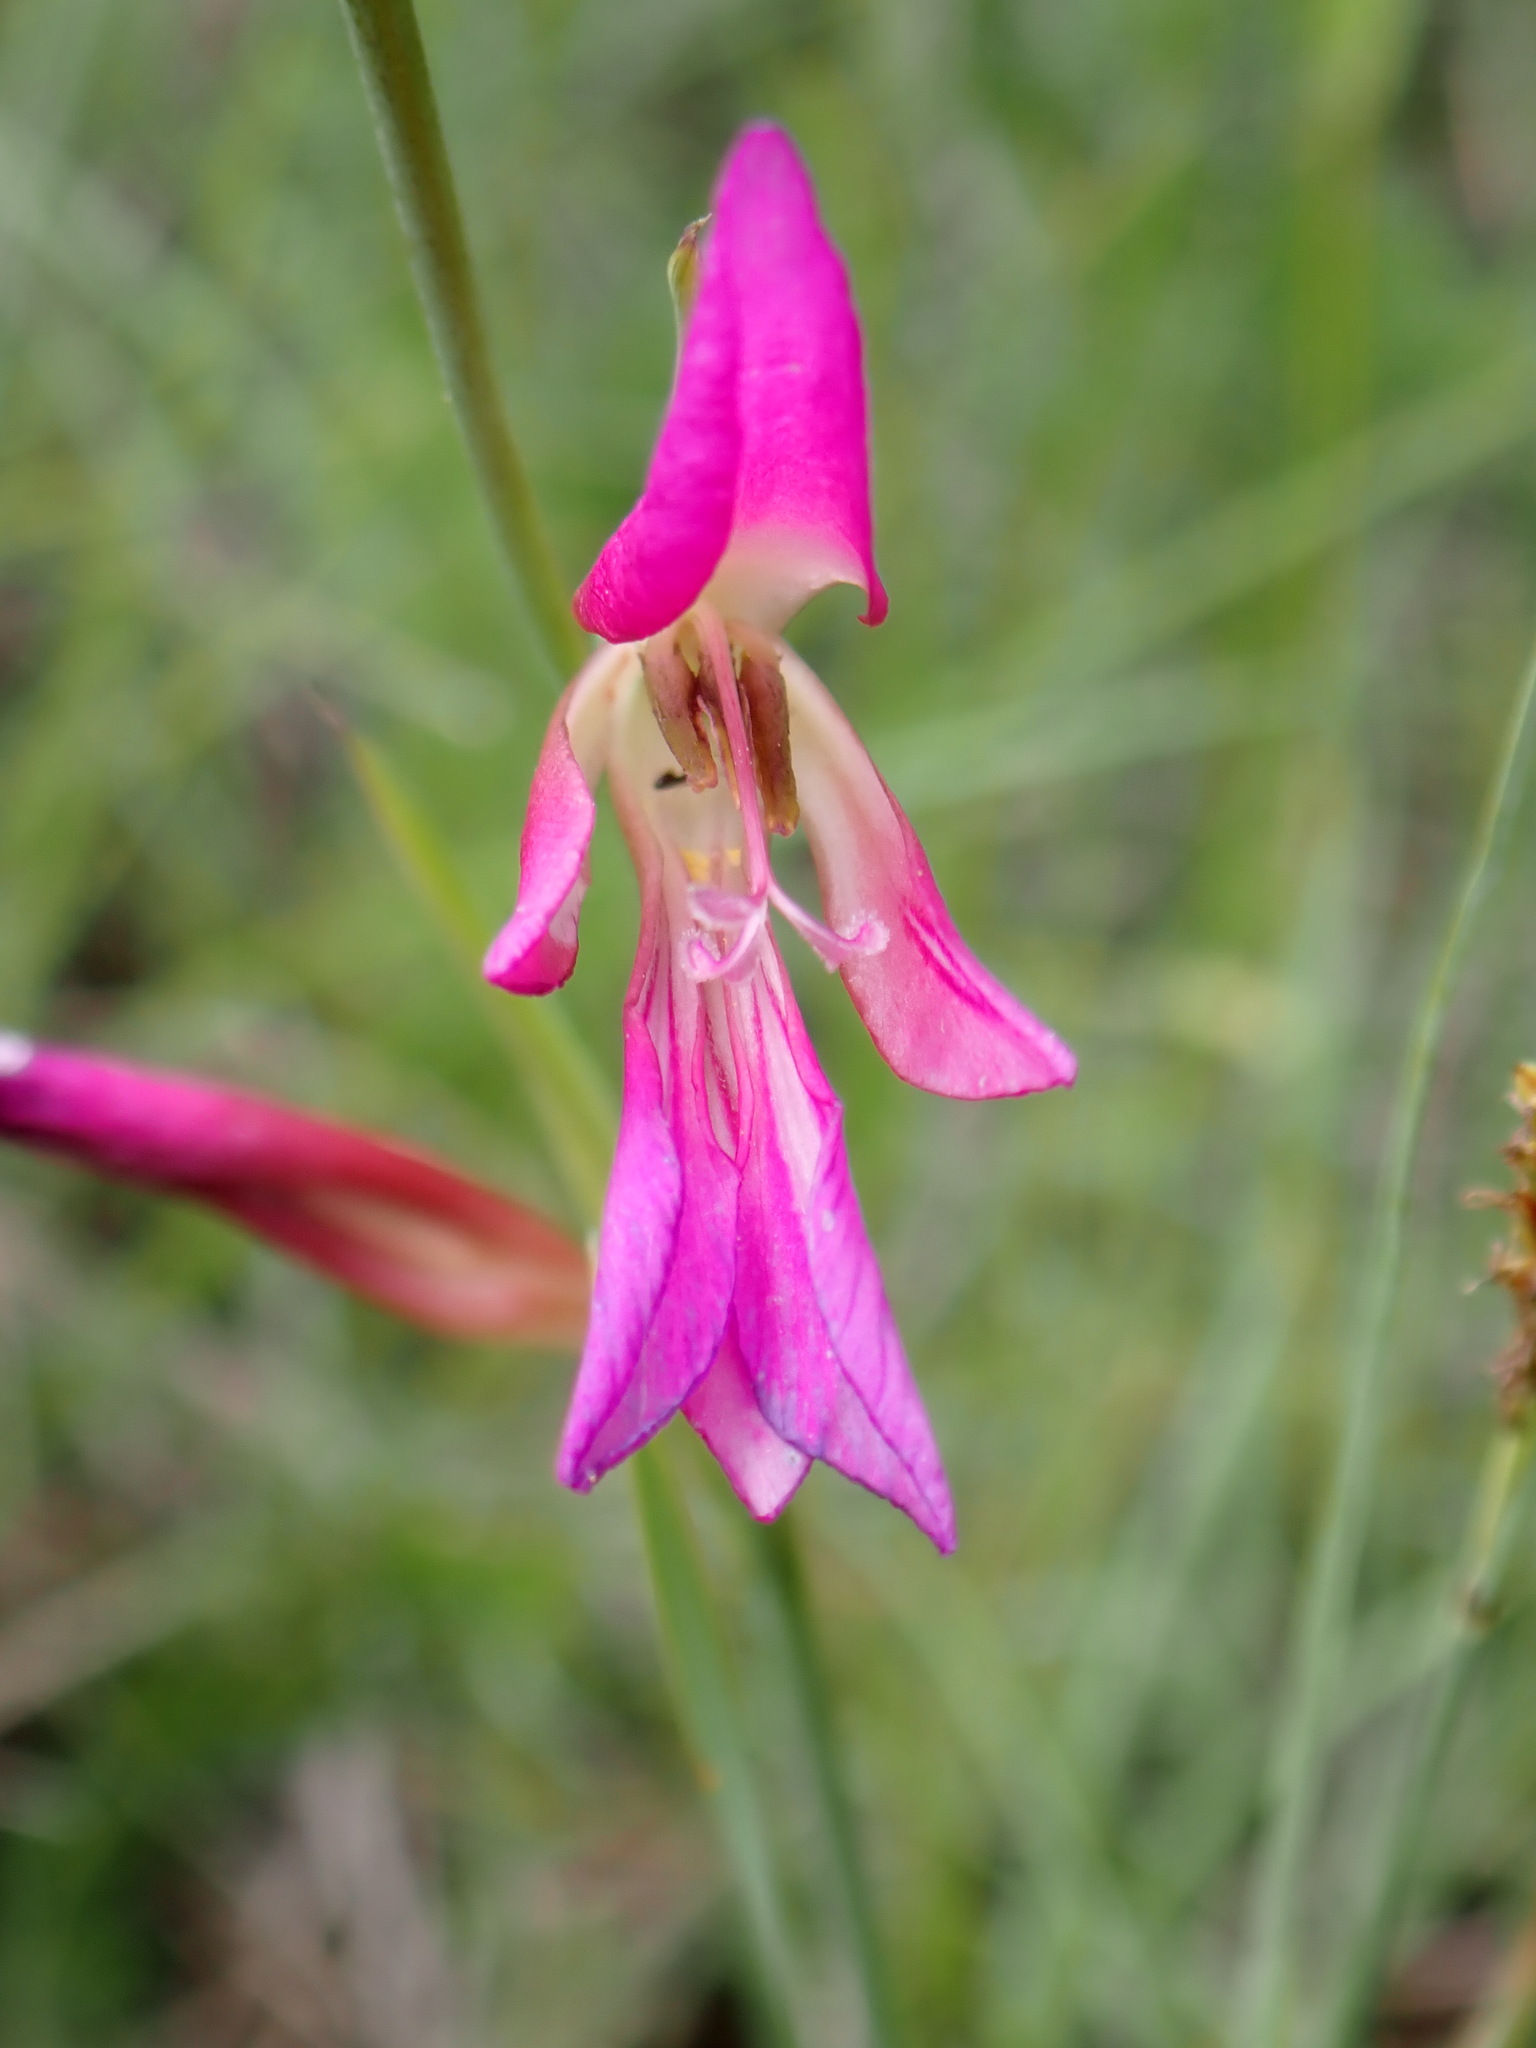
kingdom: Plantae
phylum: Tracheophyta
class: Liliopsida
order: Asparagales
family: Iridaceae
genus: Gladiolus
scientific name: Gladiolus italicus
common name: Field gladiolus
